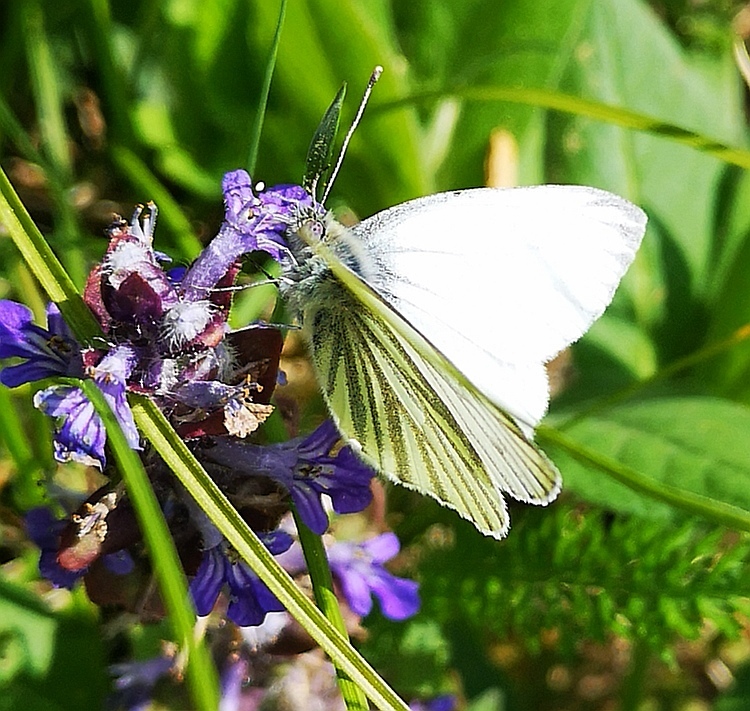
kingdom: Animalia
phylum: Arthropoda
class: Insecta
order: Lepidoptera
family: Pieridae
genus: Pieris
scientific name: Pieris napi
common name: Green-veined white
